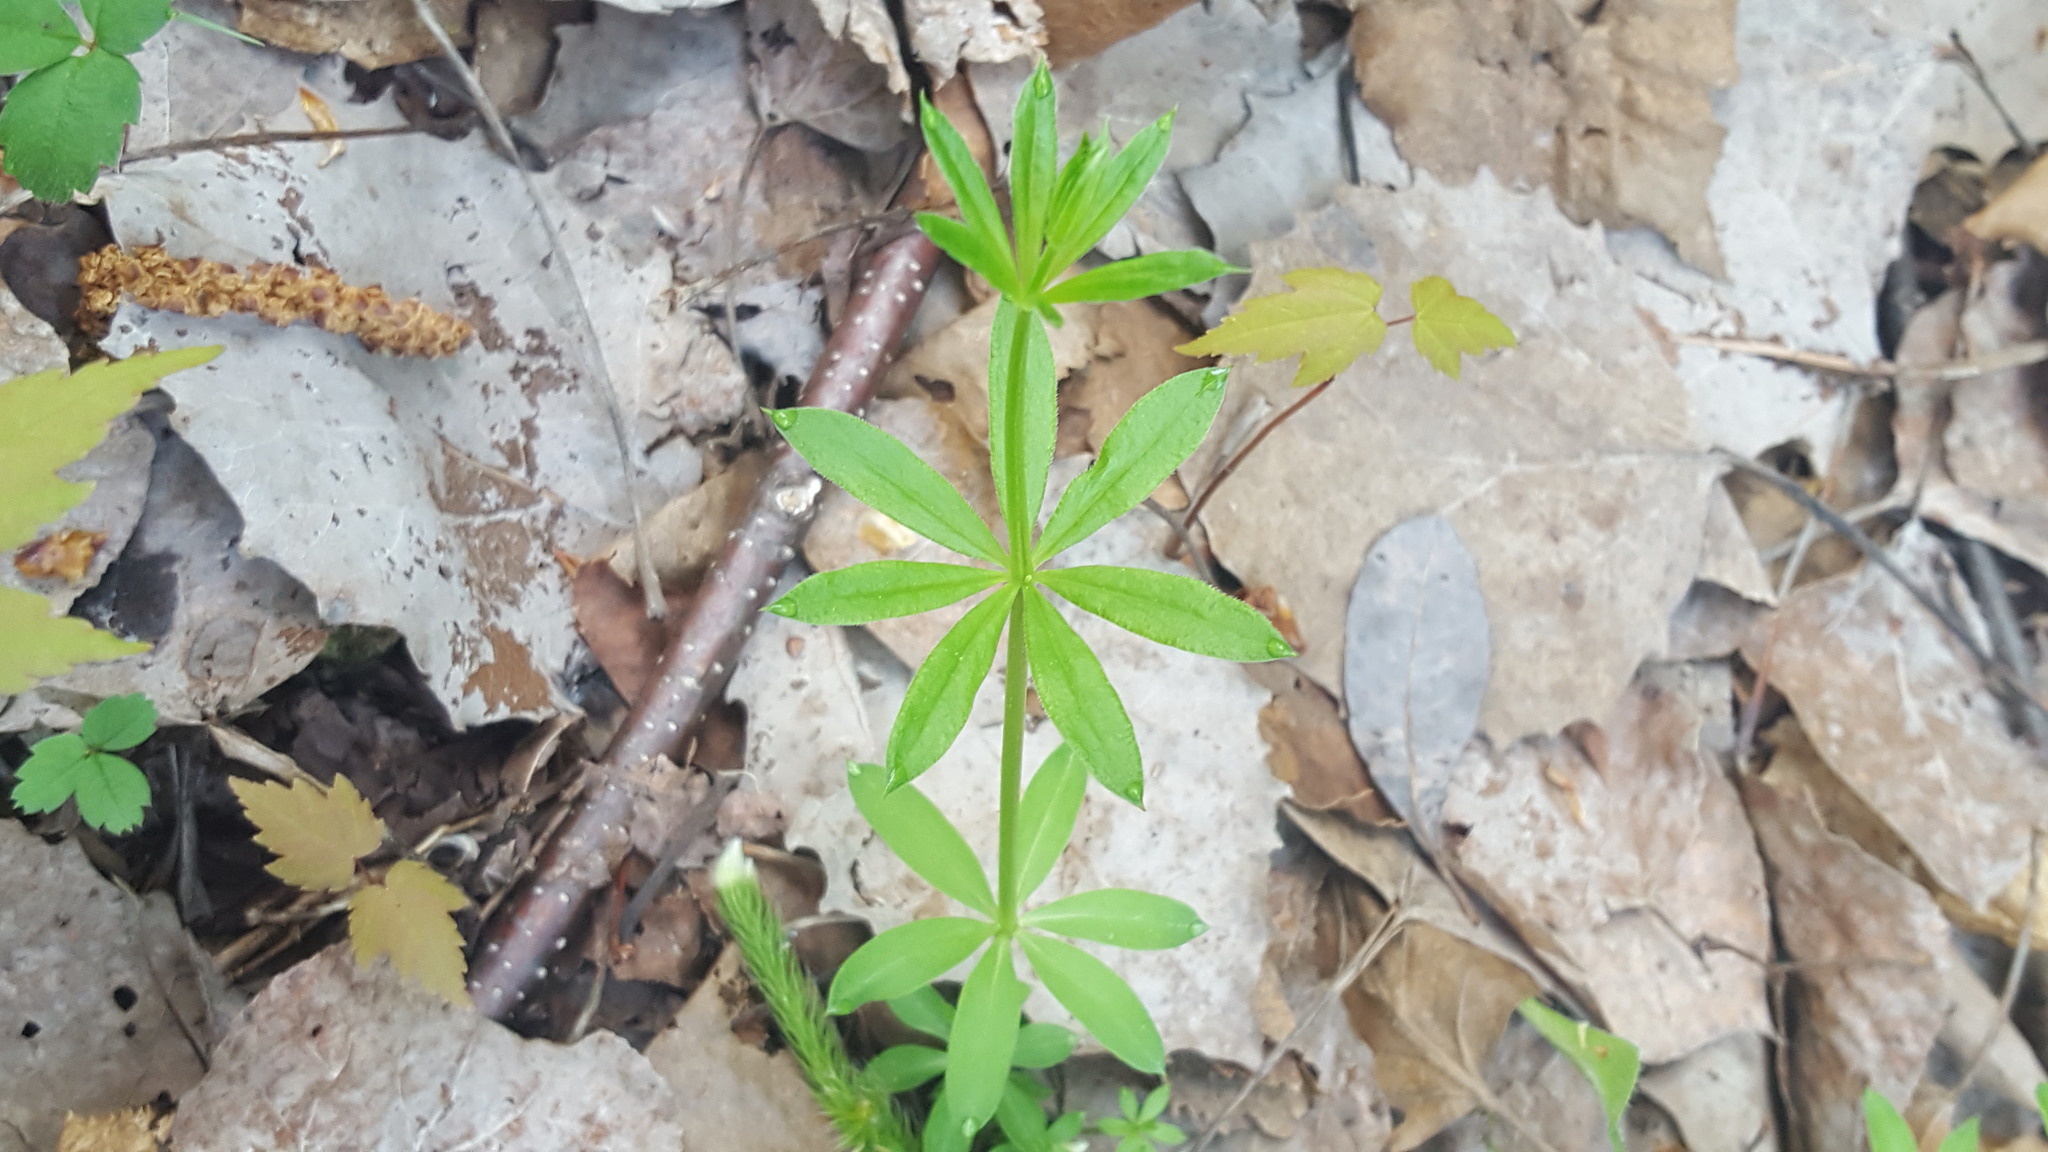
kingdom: Plantae
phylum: Tracheophyta
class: Magnoliopsida
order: Gentianales
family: Rubiaceae
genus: Galium
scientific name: Galium triflorum
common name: Fragrant bedstraw
